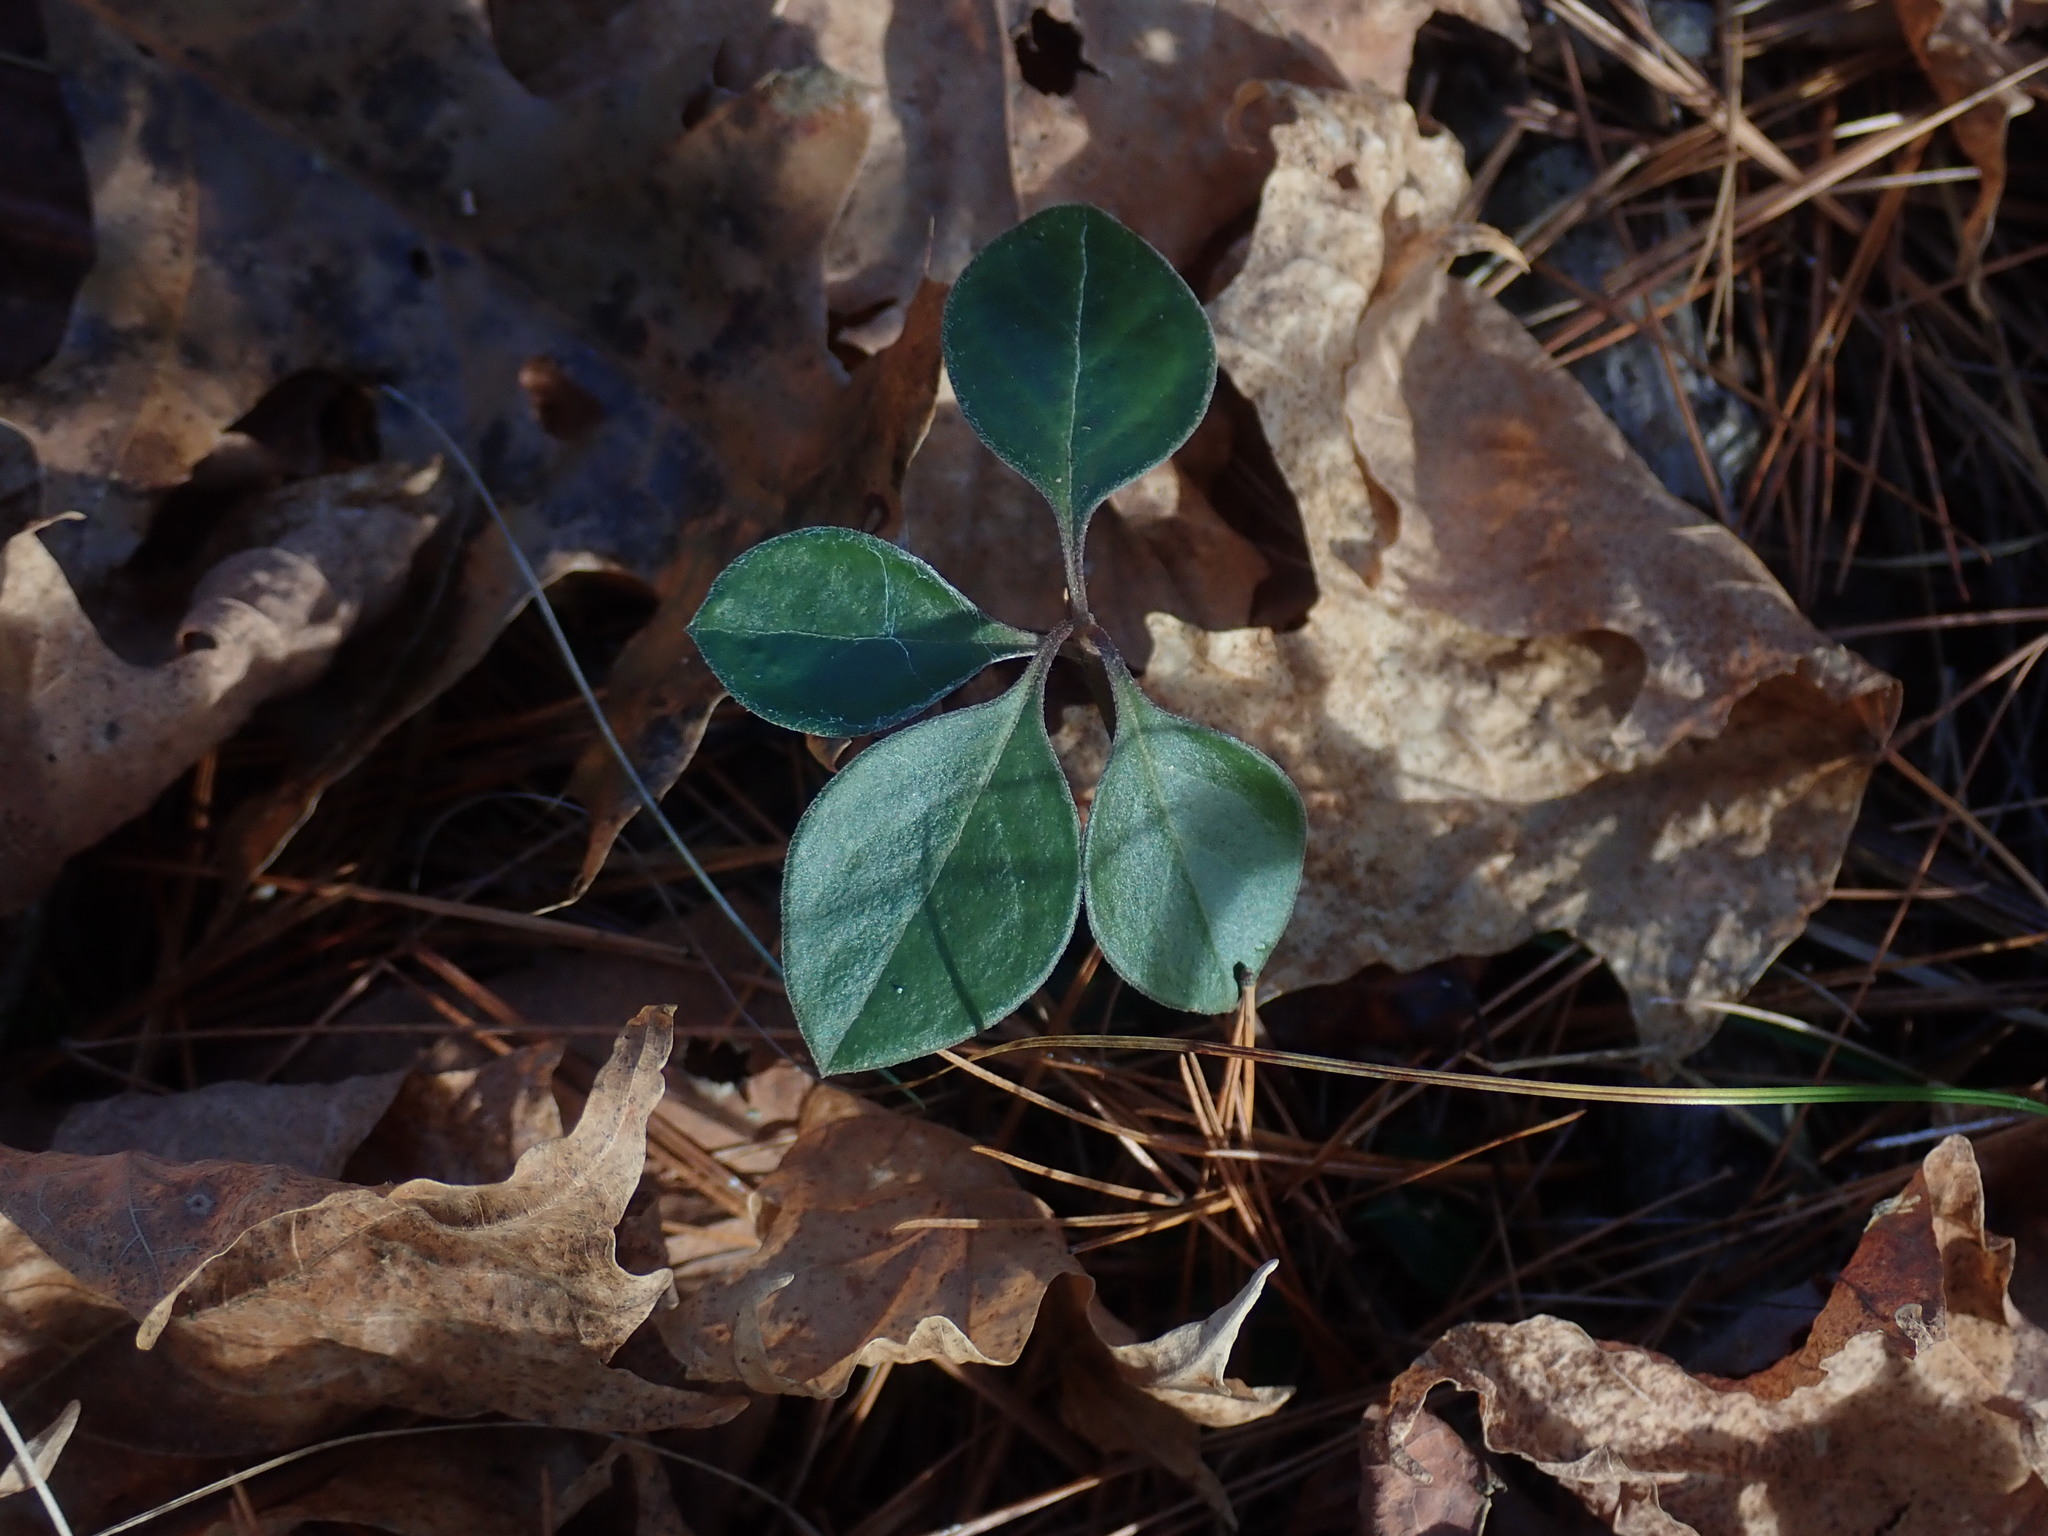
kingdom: Plantae
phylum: Tracheophyta
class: Magnoliopsida
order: Fabales
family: Polygalaceae
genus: Polygaloides
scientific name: Polygaloides paucifolia
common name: Bird-on-the-wing
